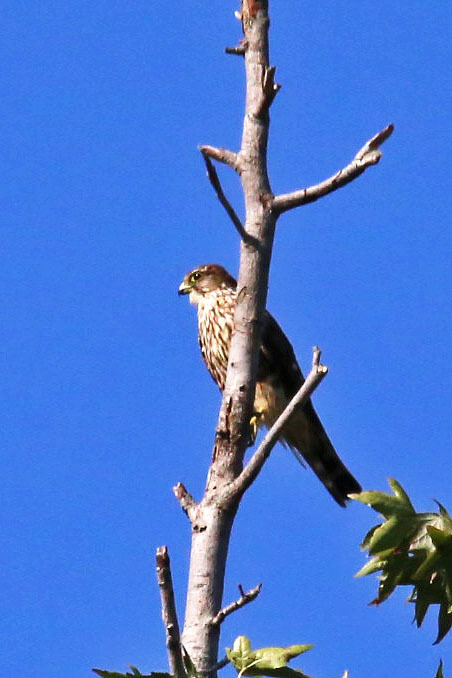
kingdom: Animalia
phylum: Chordata
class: Aves
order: Falconiformes
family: Falconidae
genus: Falco
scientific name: Falco columbarius
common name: Merlin
